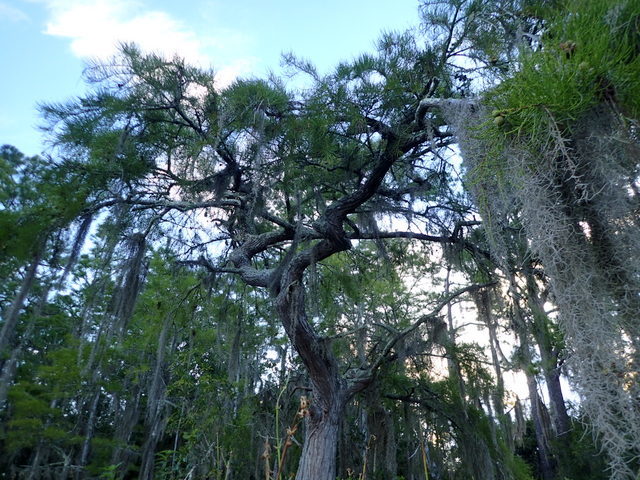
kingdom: Plantae
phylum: Tracheophyta
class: Pinopsida
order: Pinales
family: Cupressaceae
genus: Taxodium
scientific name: Taxodium distichum
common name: Bald cypress
